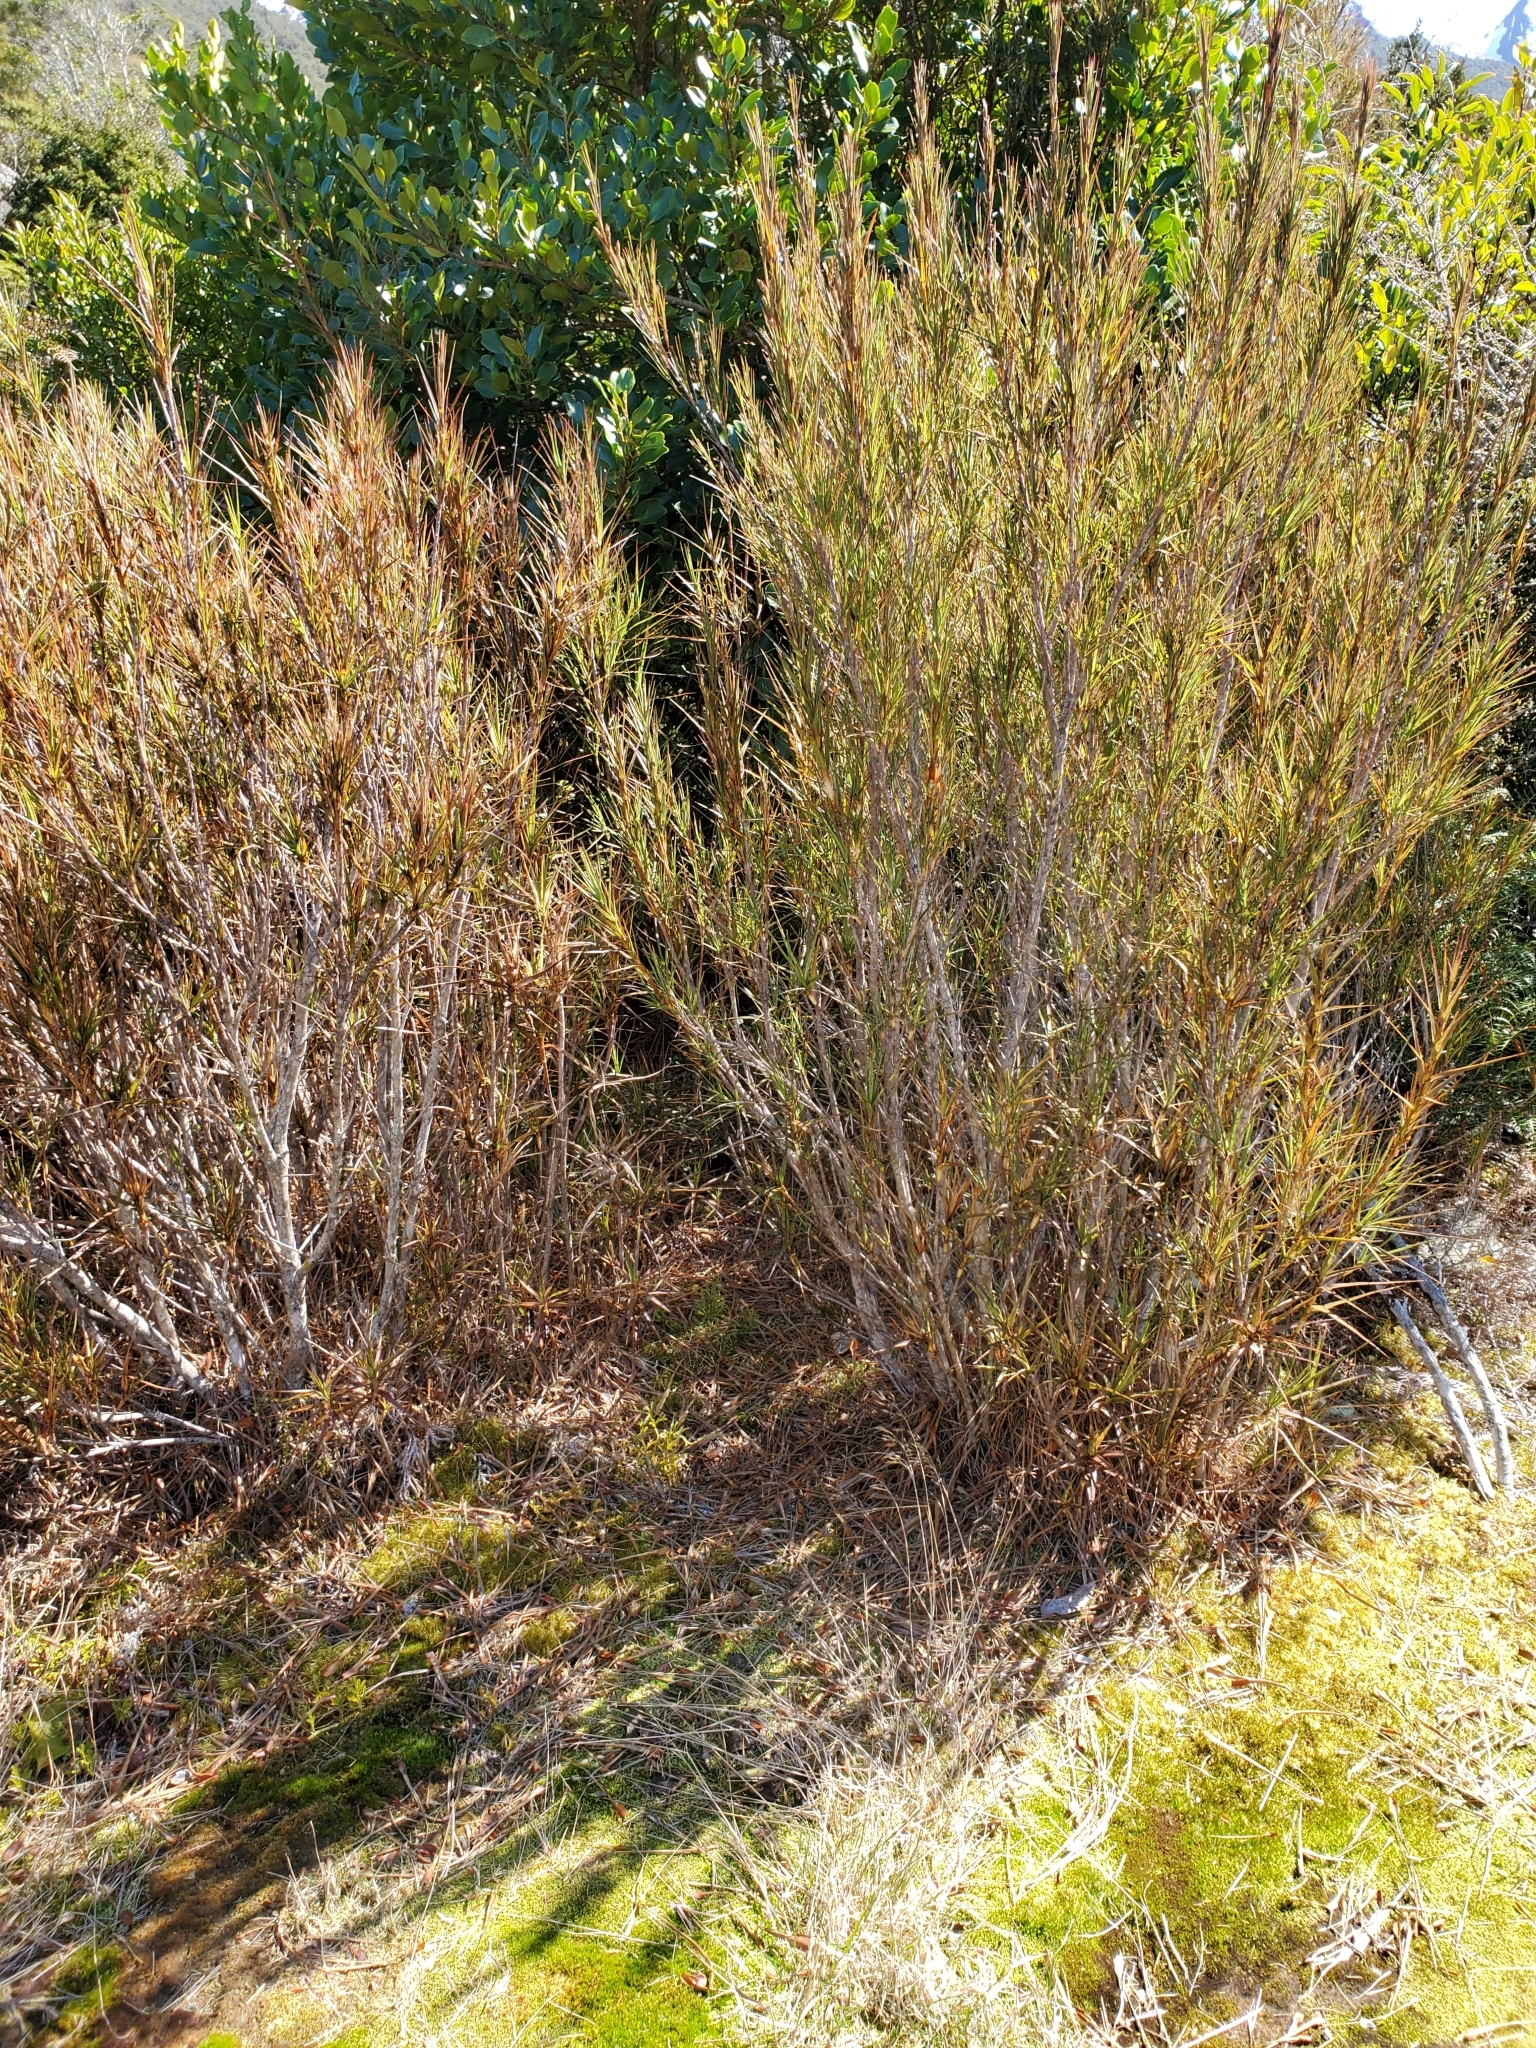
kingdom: Plantae
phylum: Tracheophyta
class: Magnoliopsida
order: Ericales
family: Ericaceae
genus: Dracophyllum
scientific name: Dracophyllum longifolium
